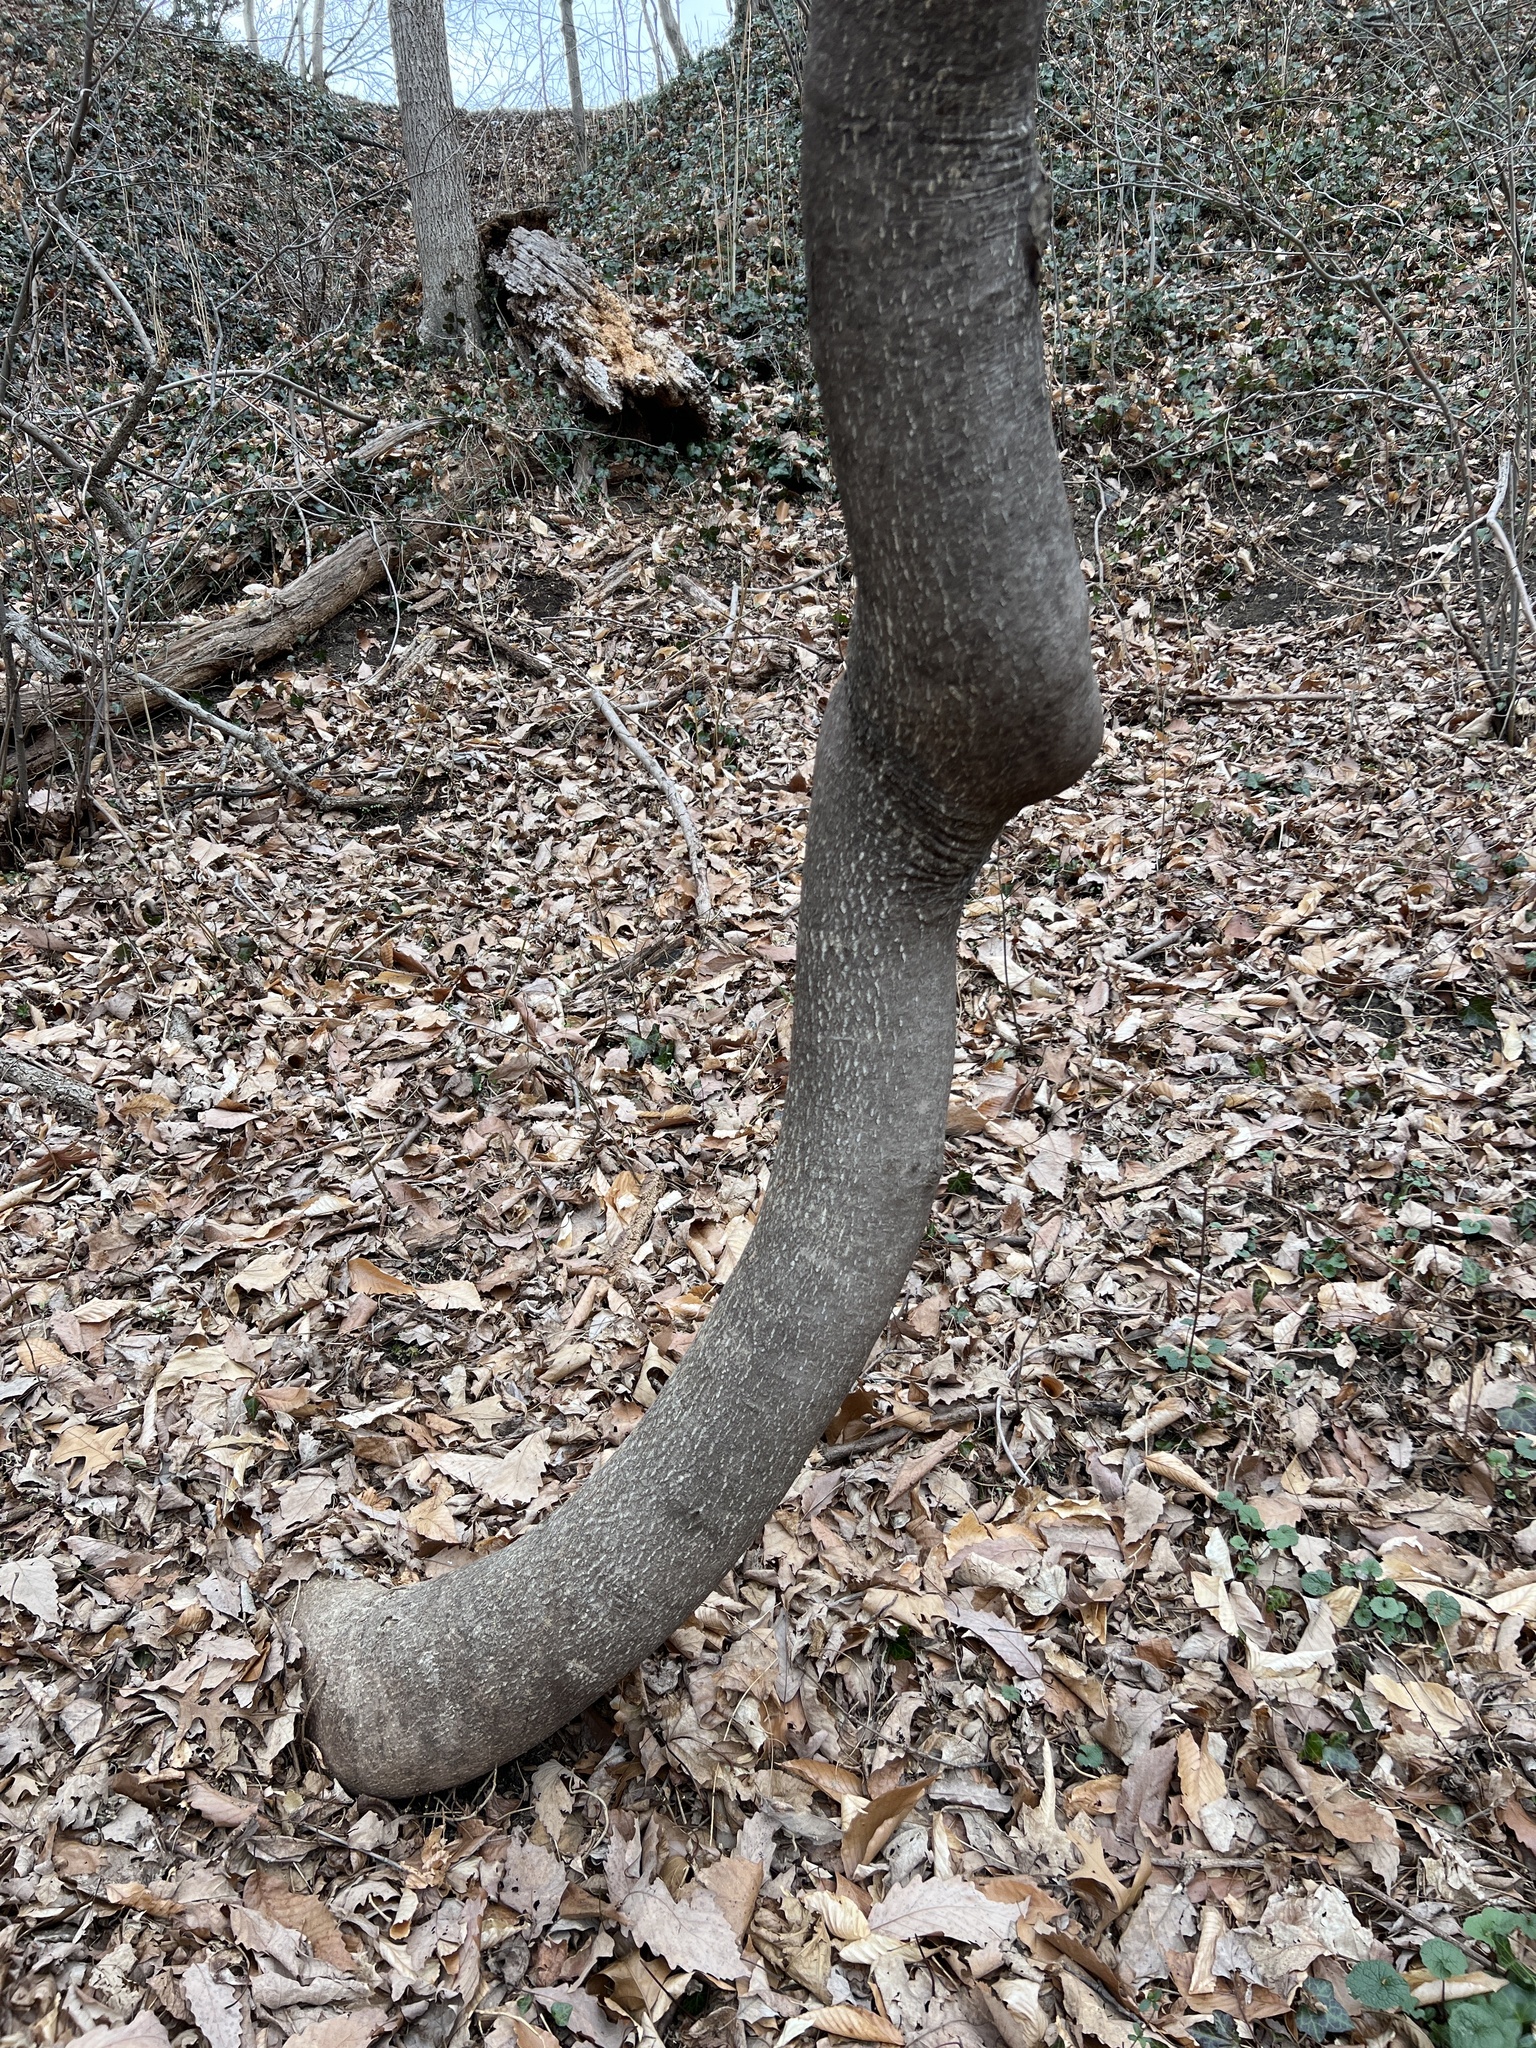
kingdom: Plantae
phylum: Tracheophyta
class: Magnoliopsida
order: Sapindales
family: Simaroubaceae
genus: Ailanthus
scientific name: Ailanthus altissima
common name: Tree-of-heaven
